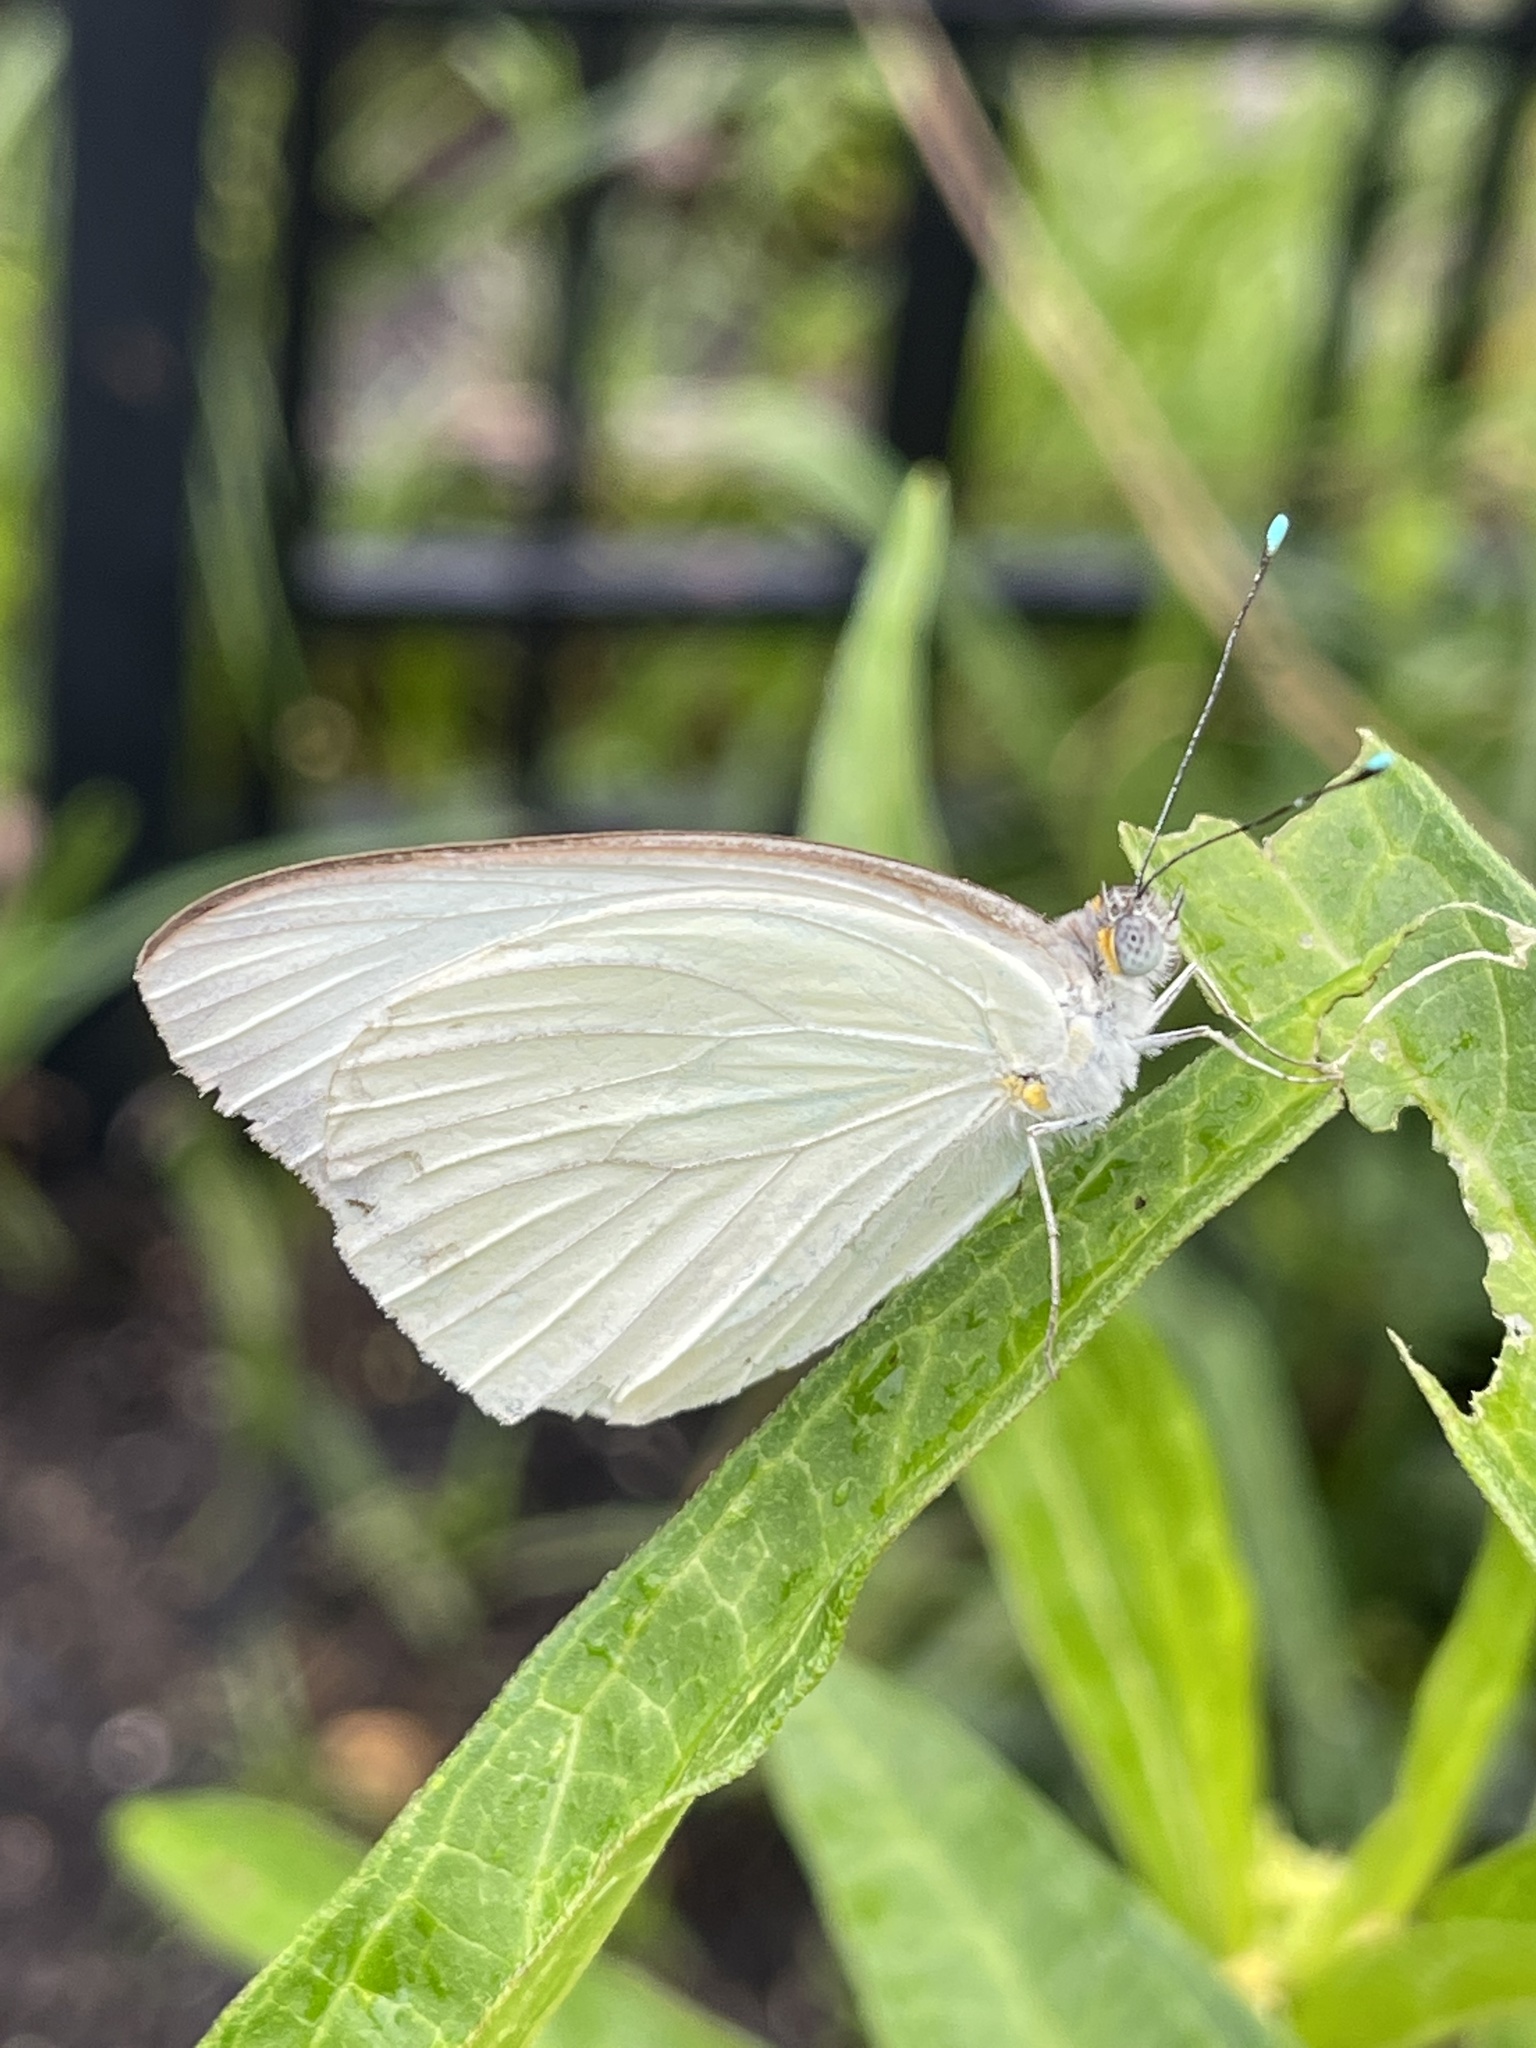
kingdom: Animalia
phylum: Arthropoda
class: Insecta
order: Lepidoptera
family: Pieridae
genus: Ascia
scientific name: Ascia monuste
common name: Great southern white
